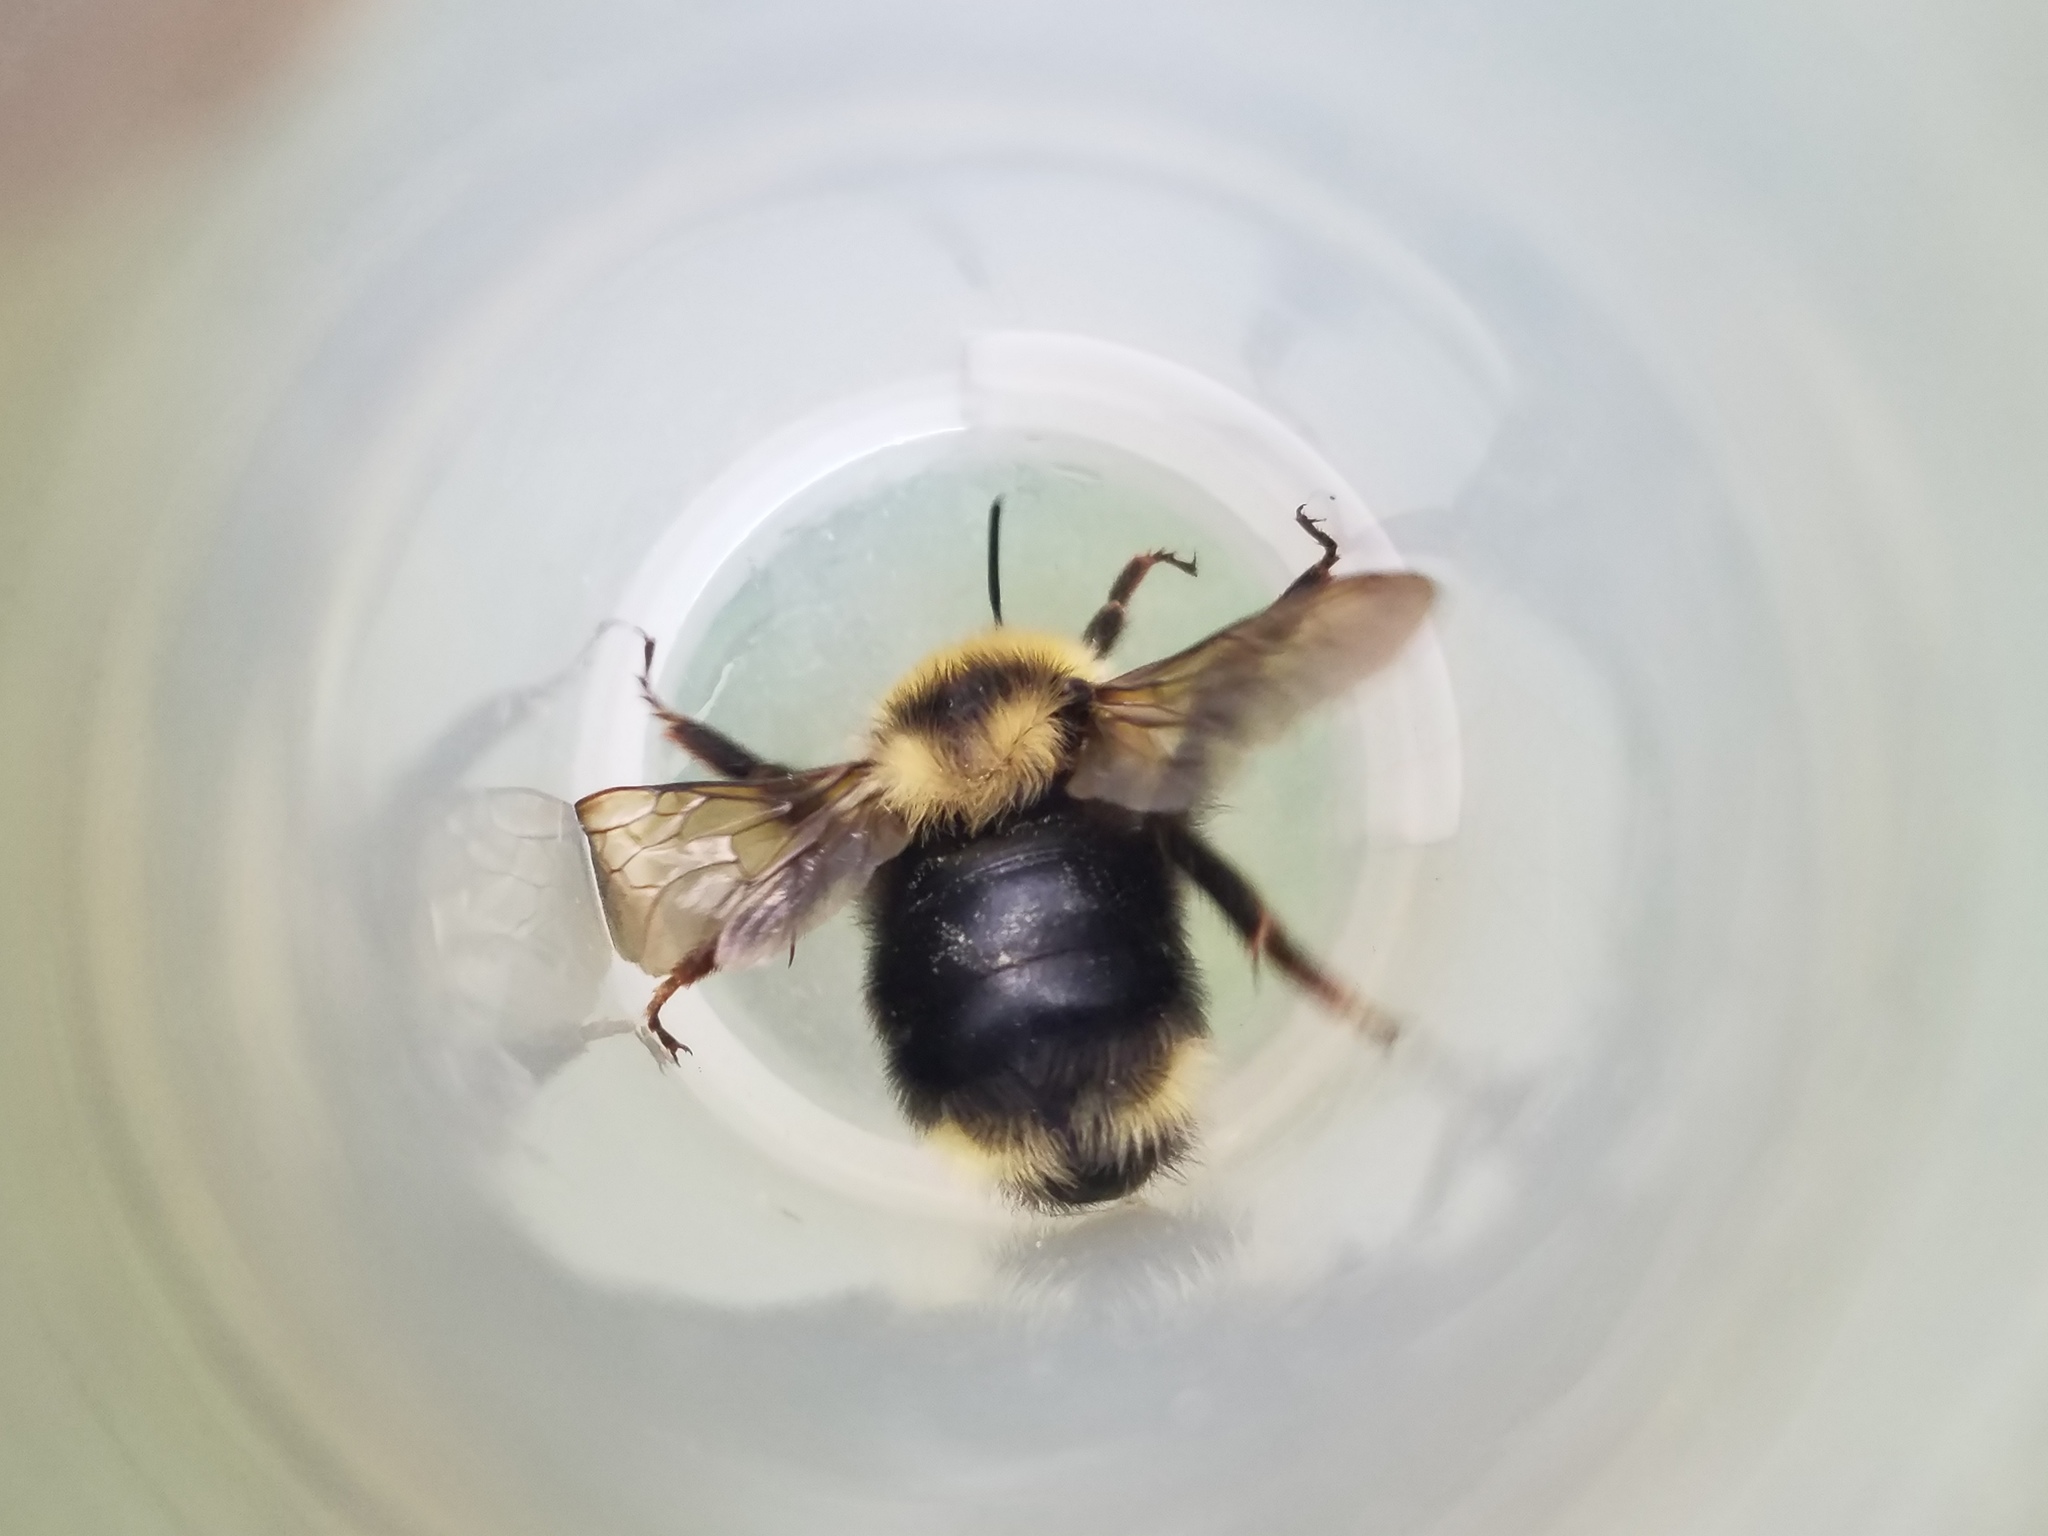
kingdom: Animalia
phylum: Arthropoda
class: Insecta
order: Hymenoptera
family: Apidae
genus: Bombus
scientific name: Bombus flavidus
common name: Fernald cuckoo bumble bee
